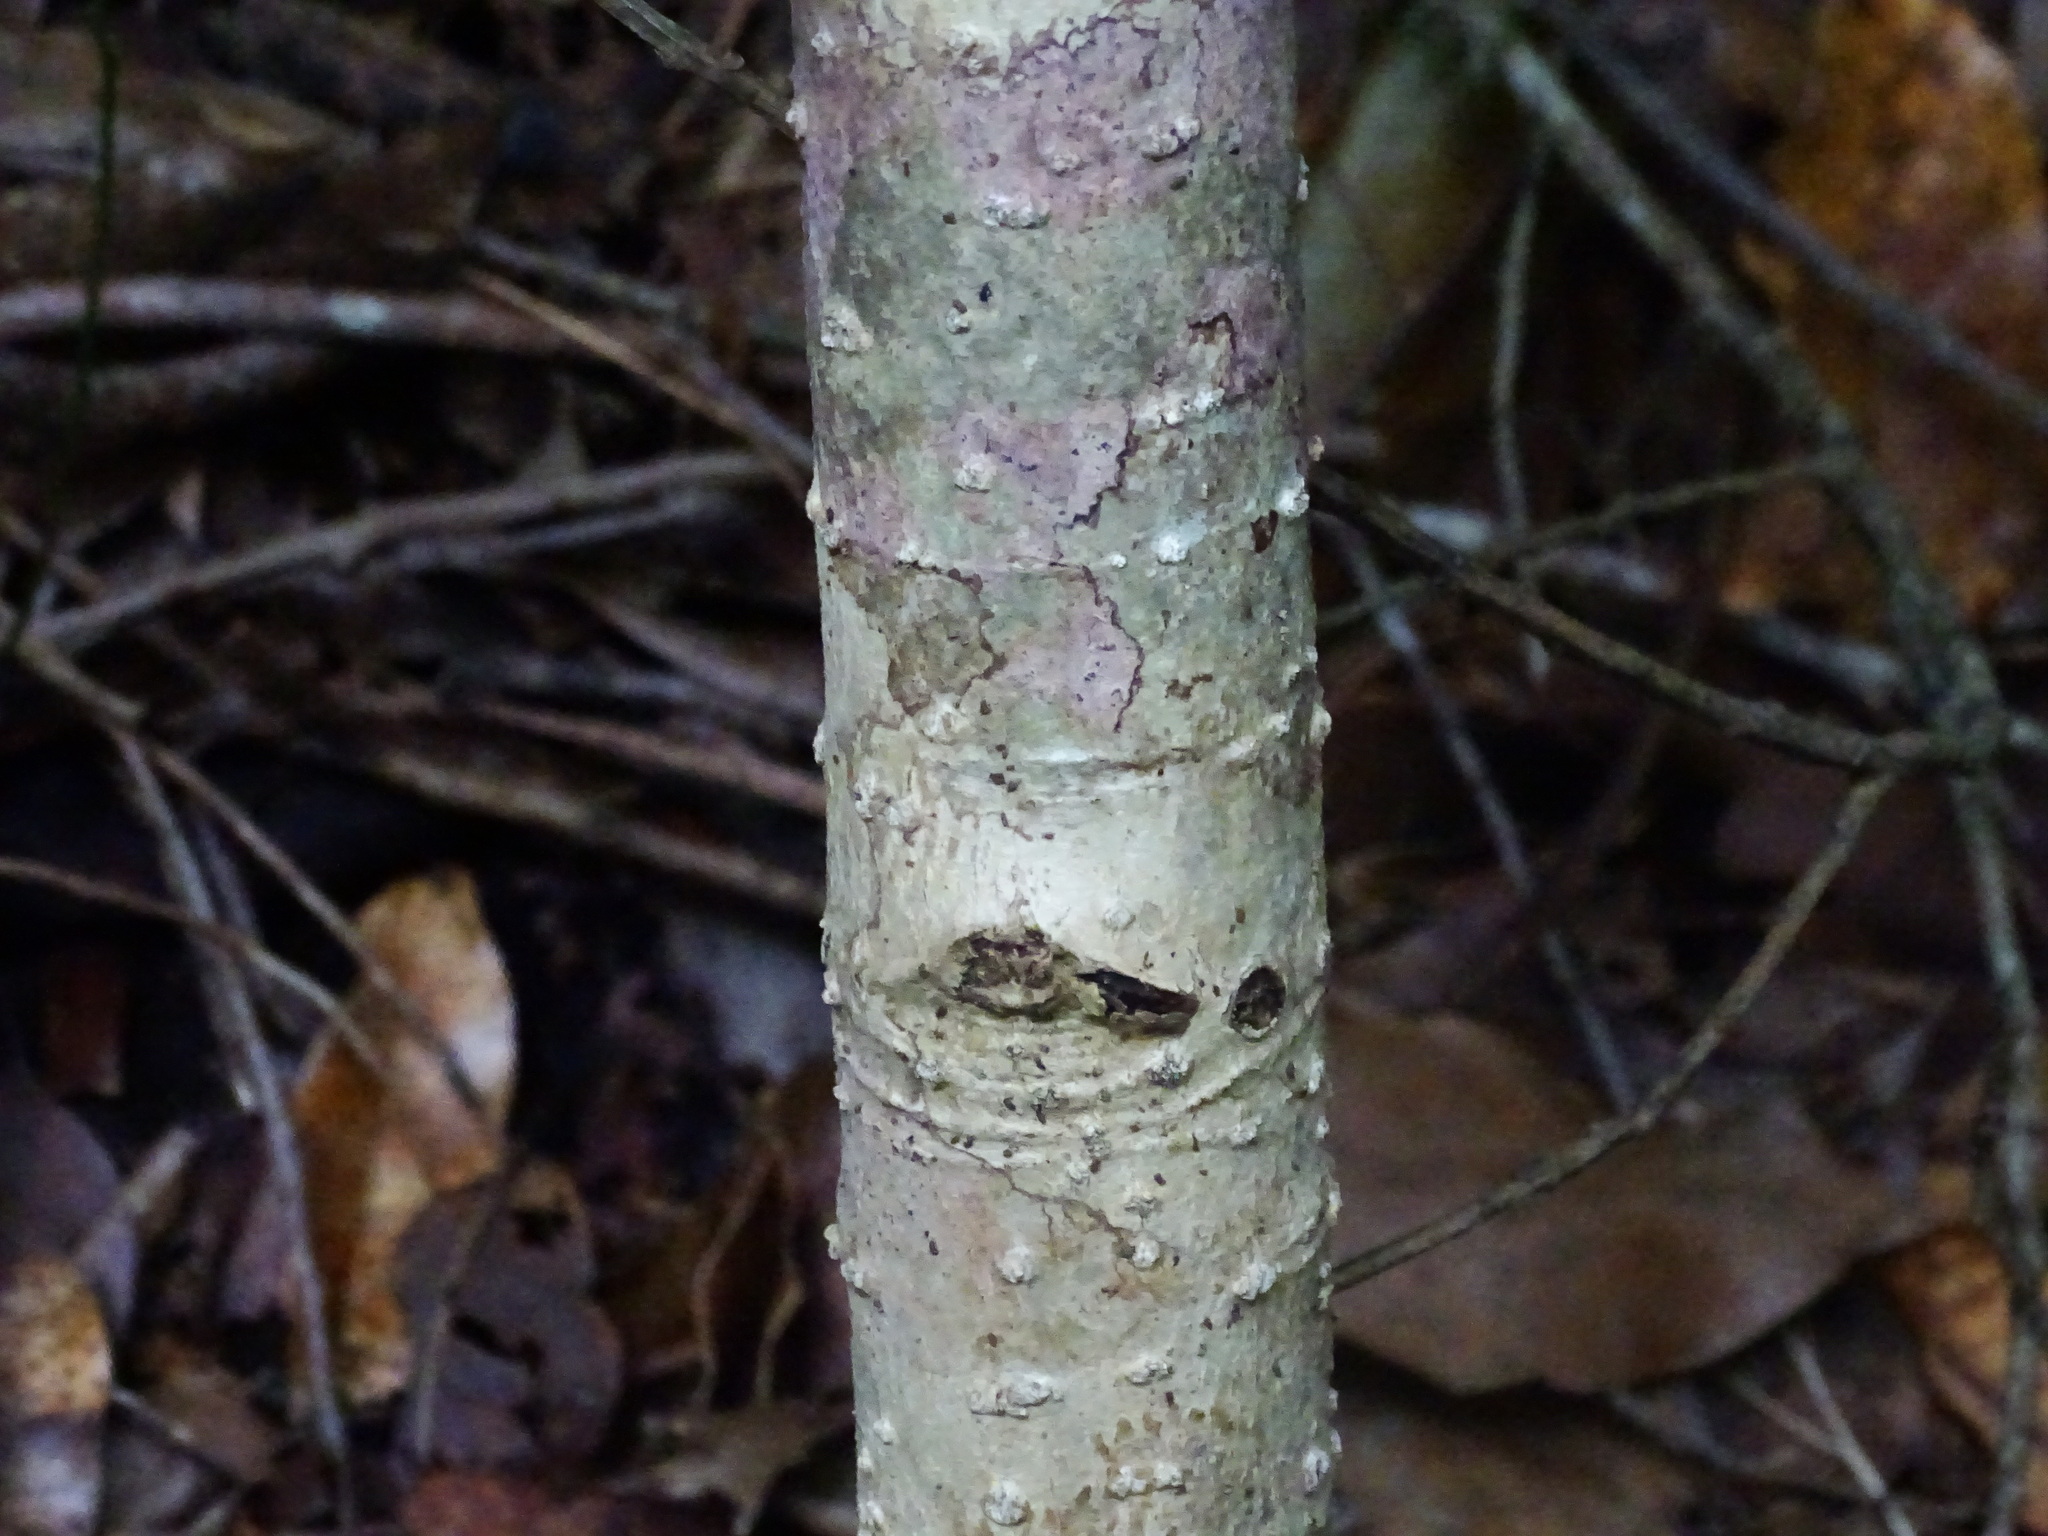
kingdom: Plantae
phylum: Tracheophyta
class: Magnoliopsida
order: Lamiales
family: Oleaceae
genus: Picconia
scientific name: Picconia excelsa
